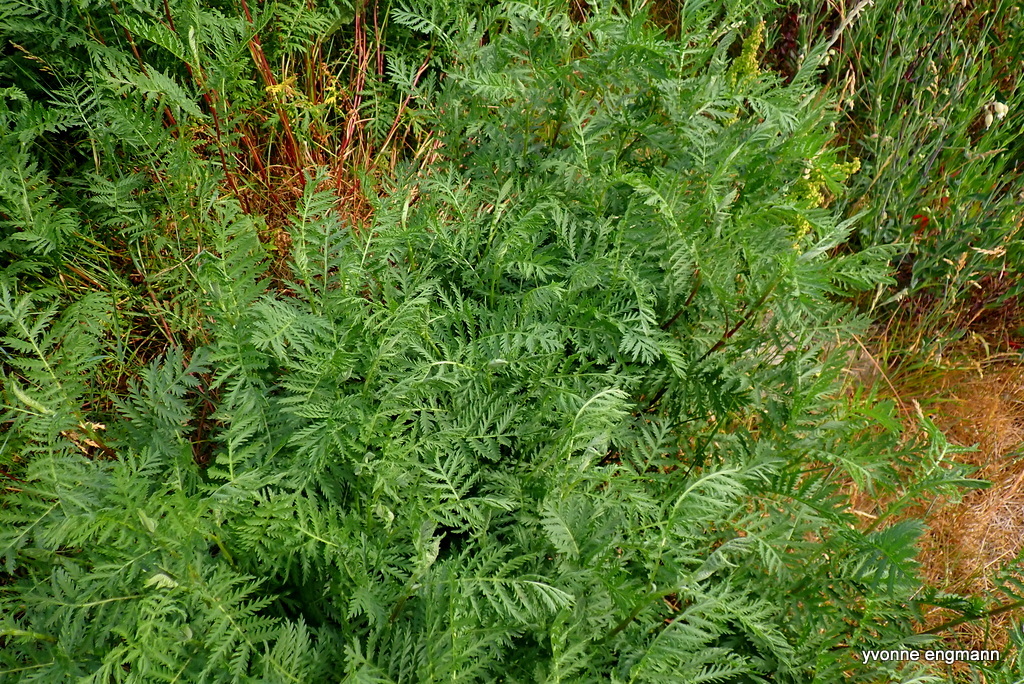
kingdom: Plantae
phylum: Tracheophyta
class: Magnoliopsida
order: Asterales
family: Asteraceae
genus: Tanacetum
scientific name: Tanacetum vulgare
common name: Common tansy
